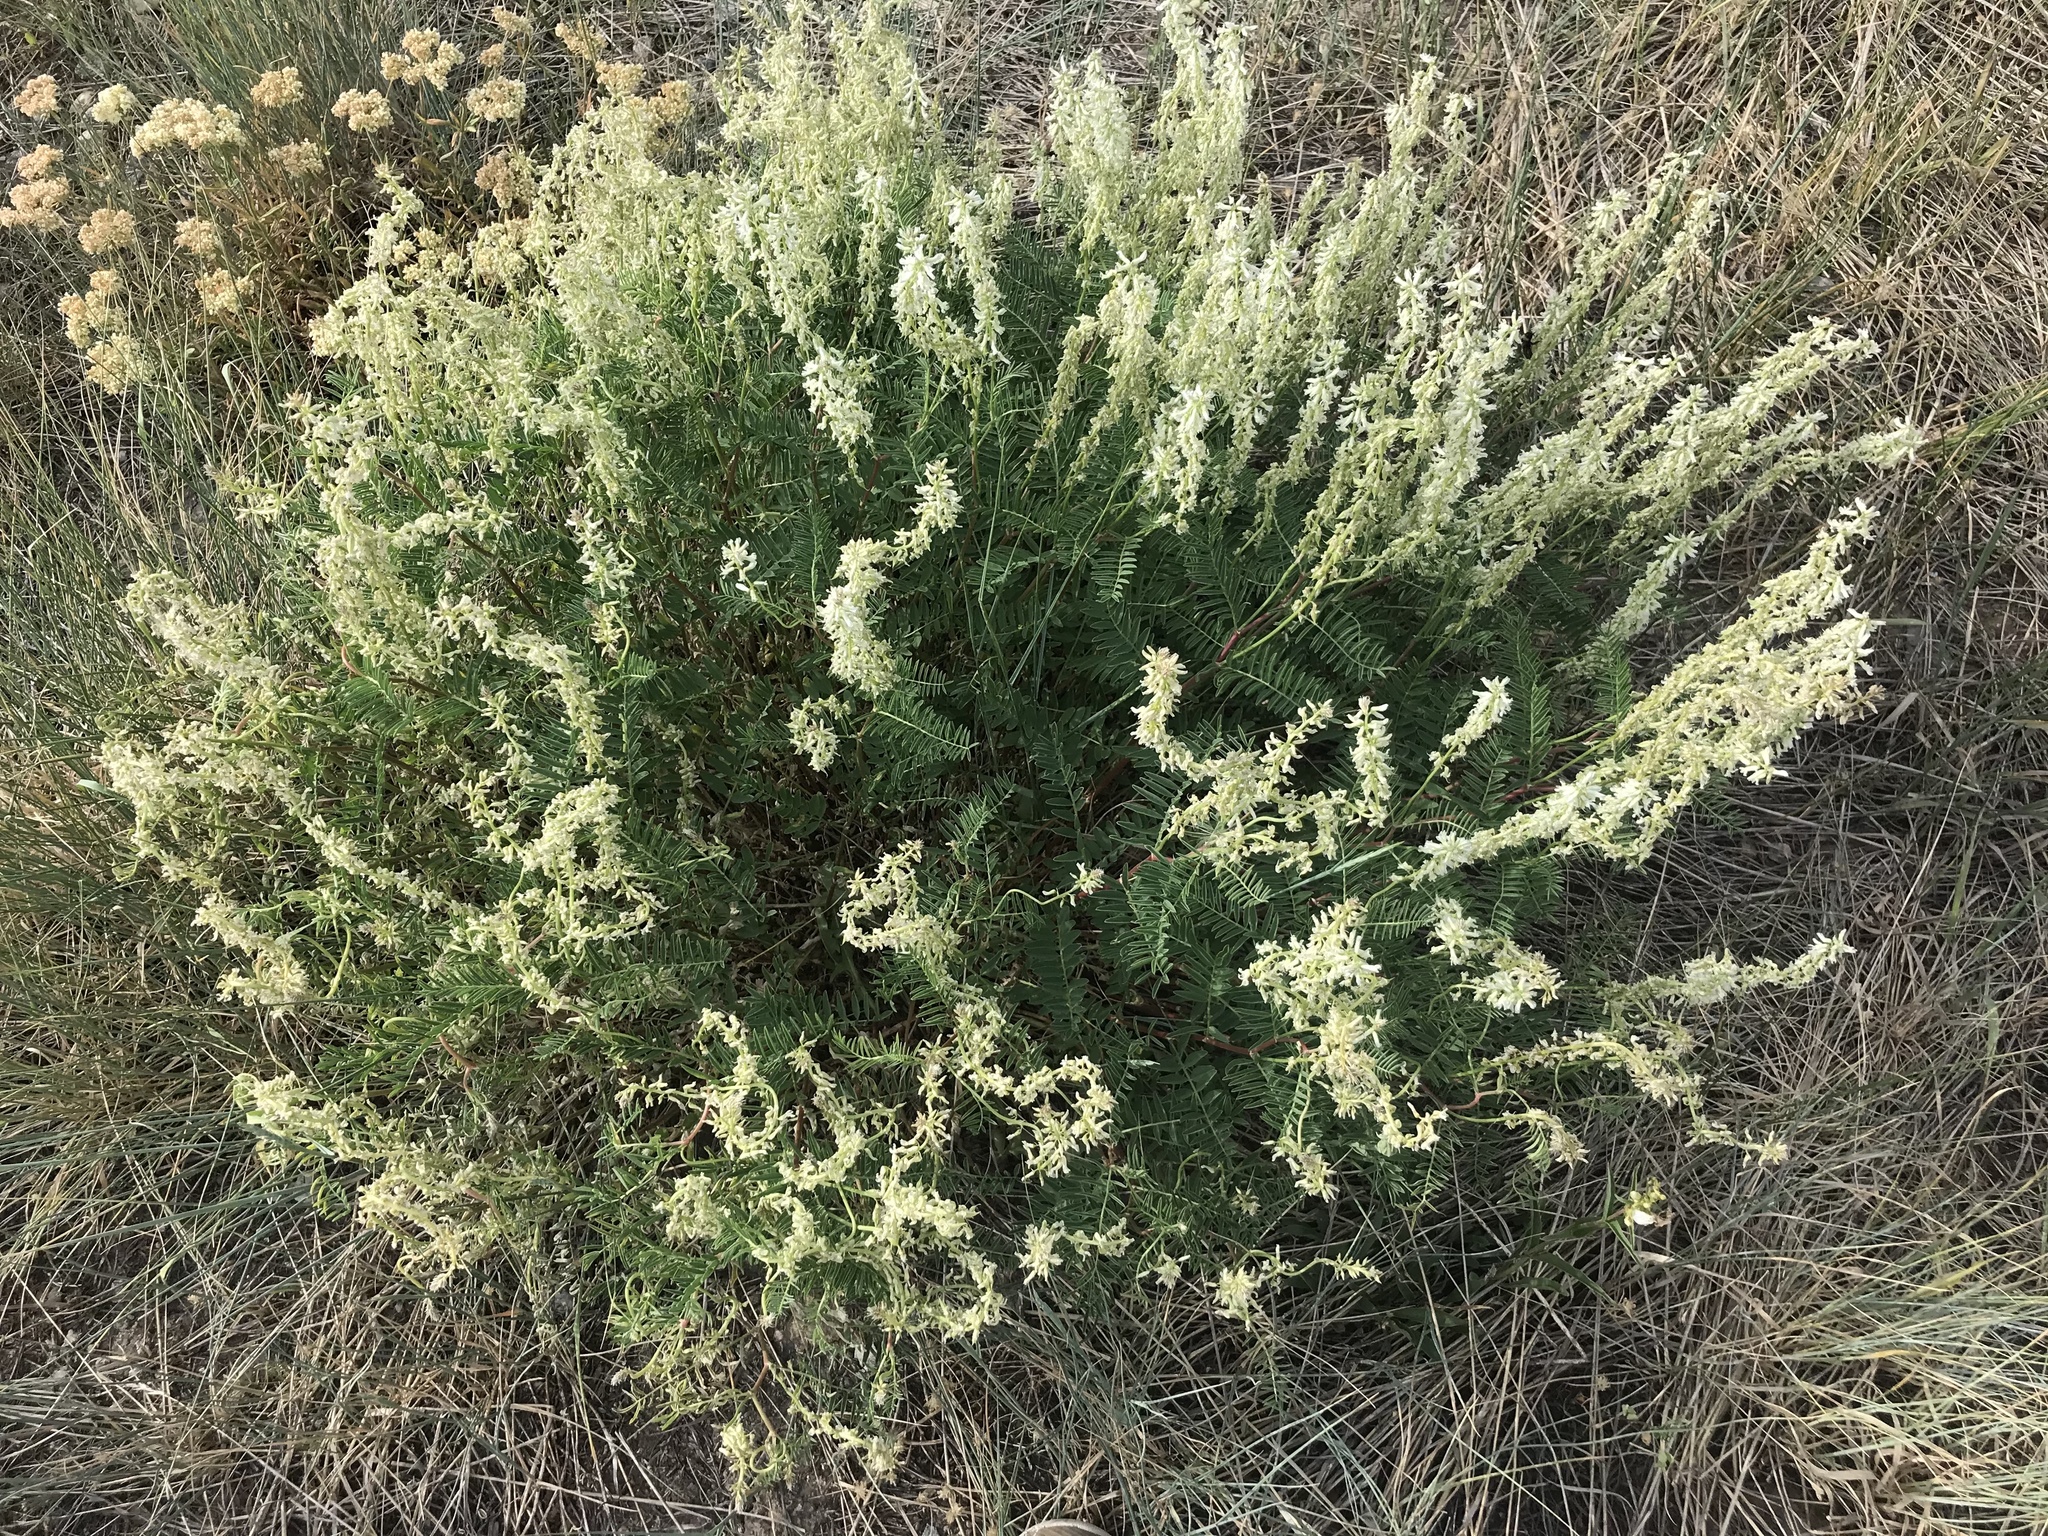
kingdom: Plantae
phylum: Tracheophyta
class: Magnoliopsida
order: Fabales
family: Fabaceae
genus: Astragalus
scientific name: Astragalus bisulcatus
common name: Two-groove milk-vetch
